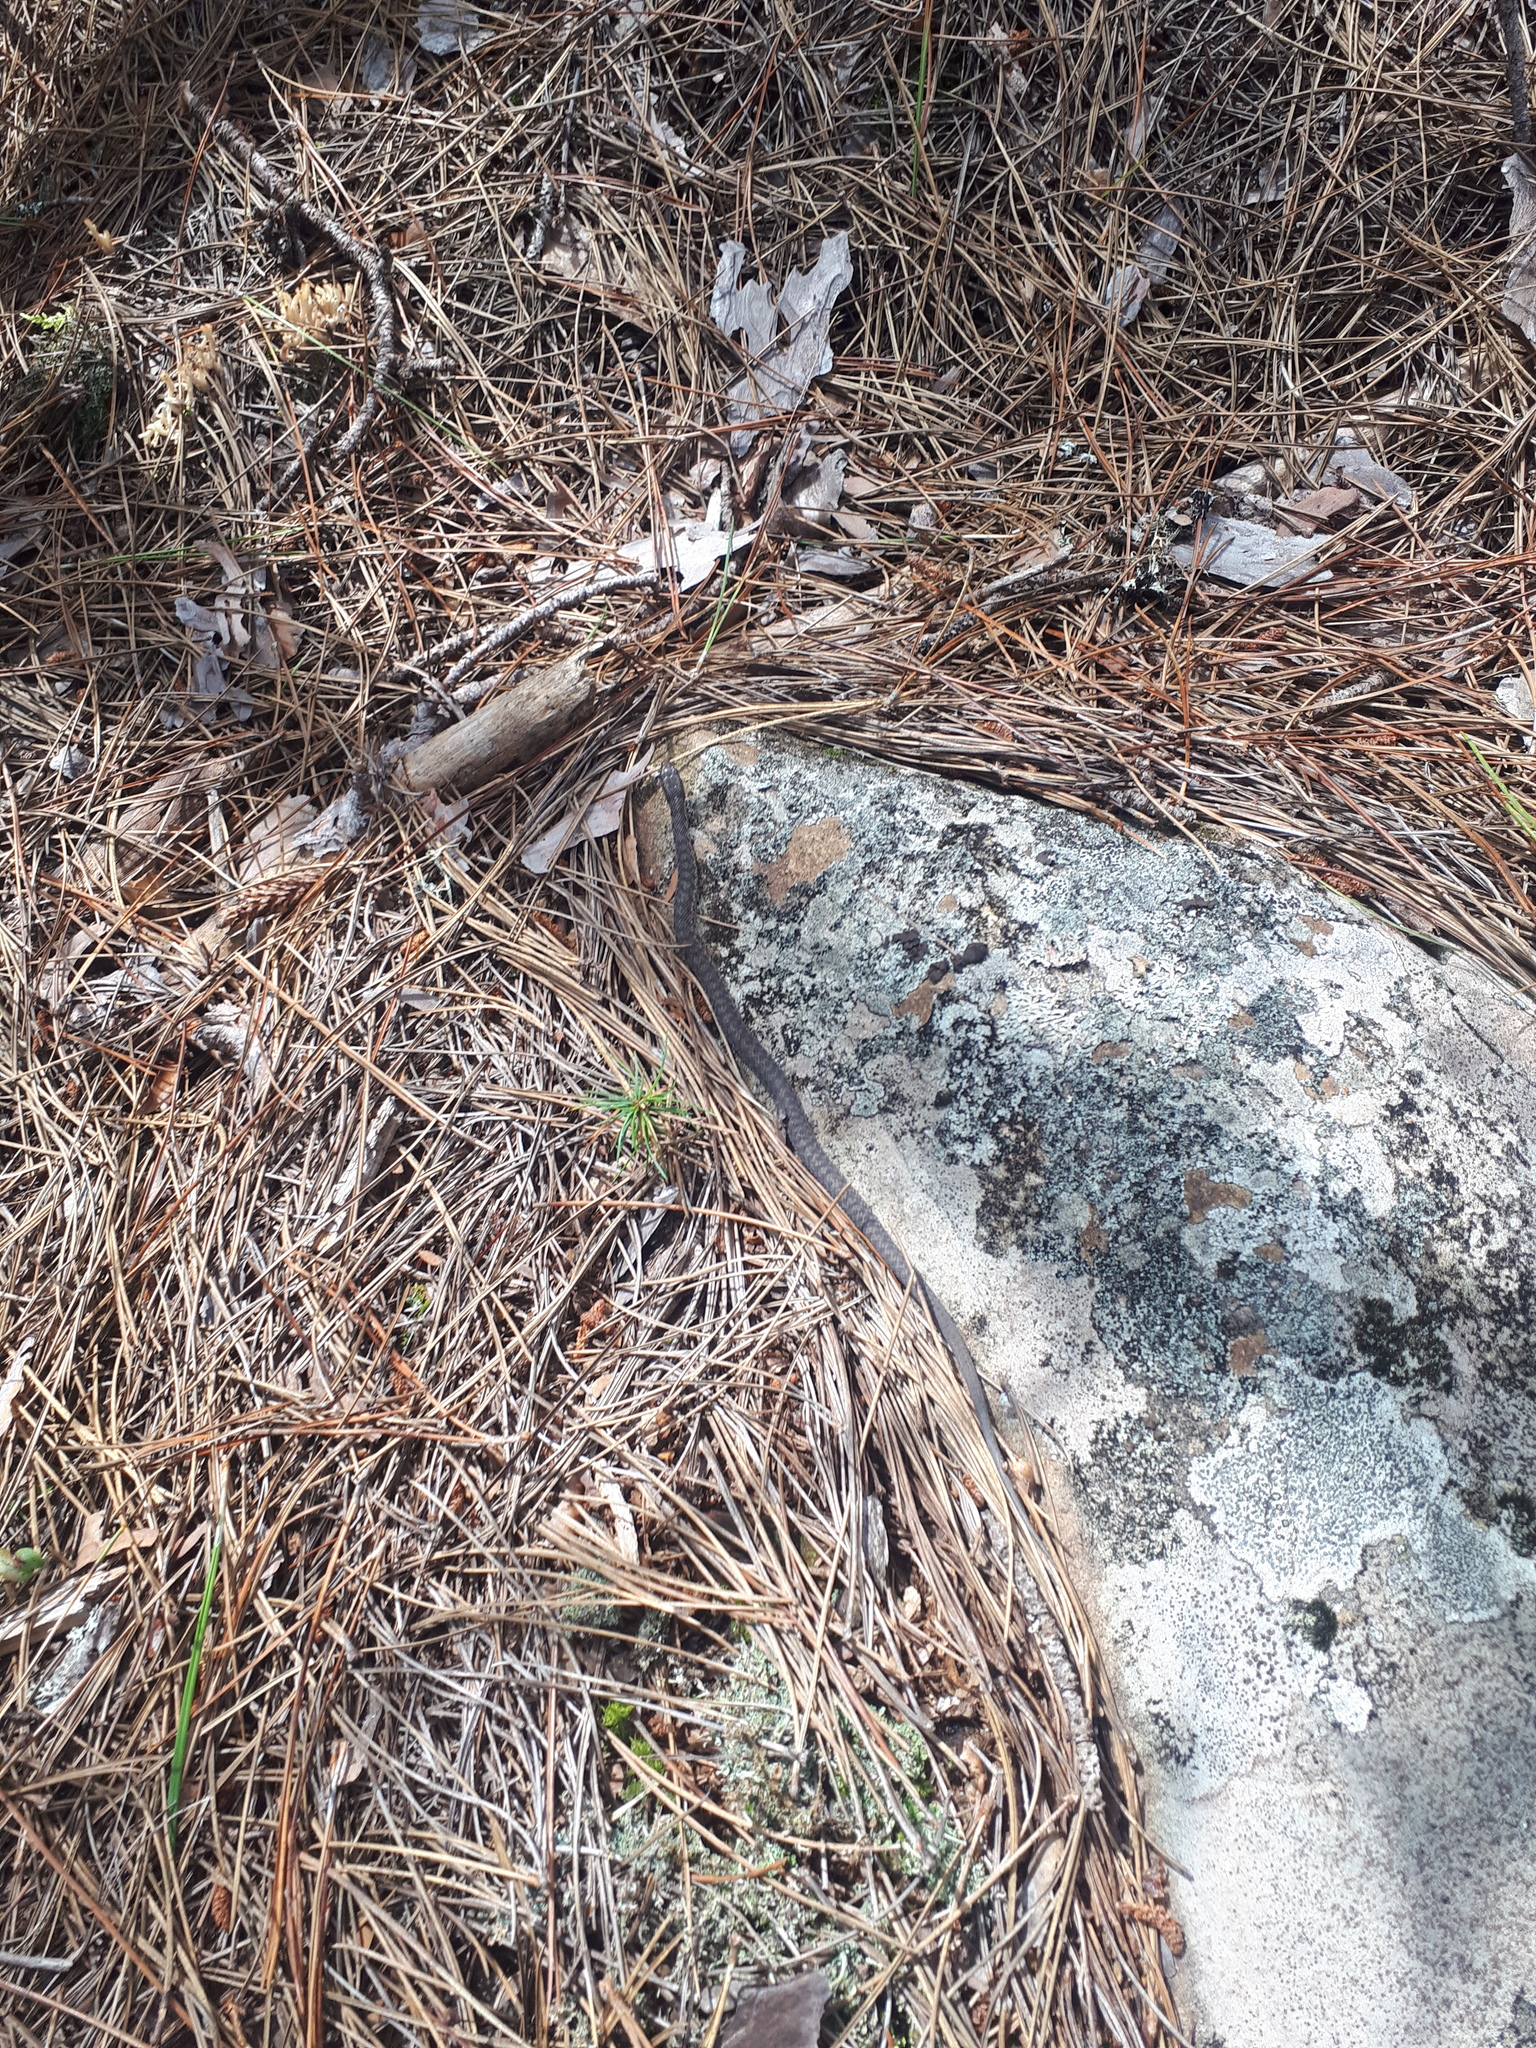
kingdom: Animalia
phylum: Chordata
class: Squamata
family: Colubridae
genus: Thamnophis
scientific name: Thamnophis sirtalis
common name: Common garter snake
